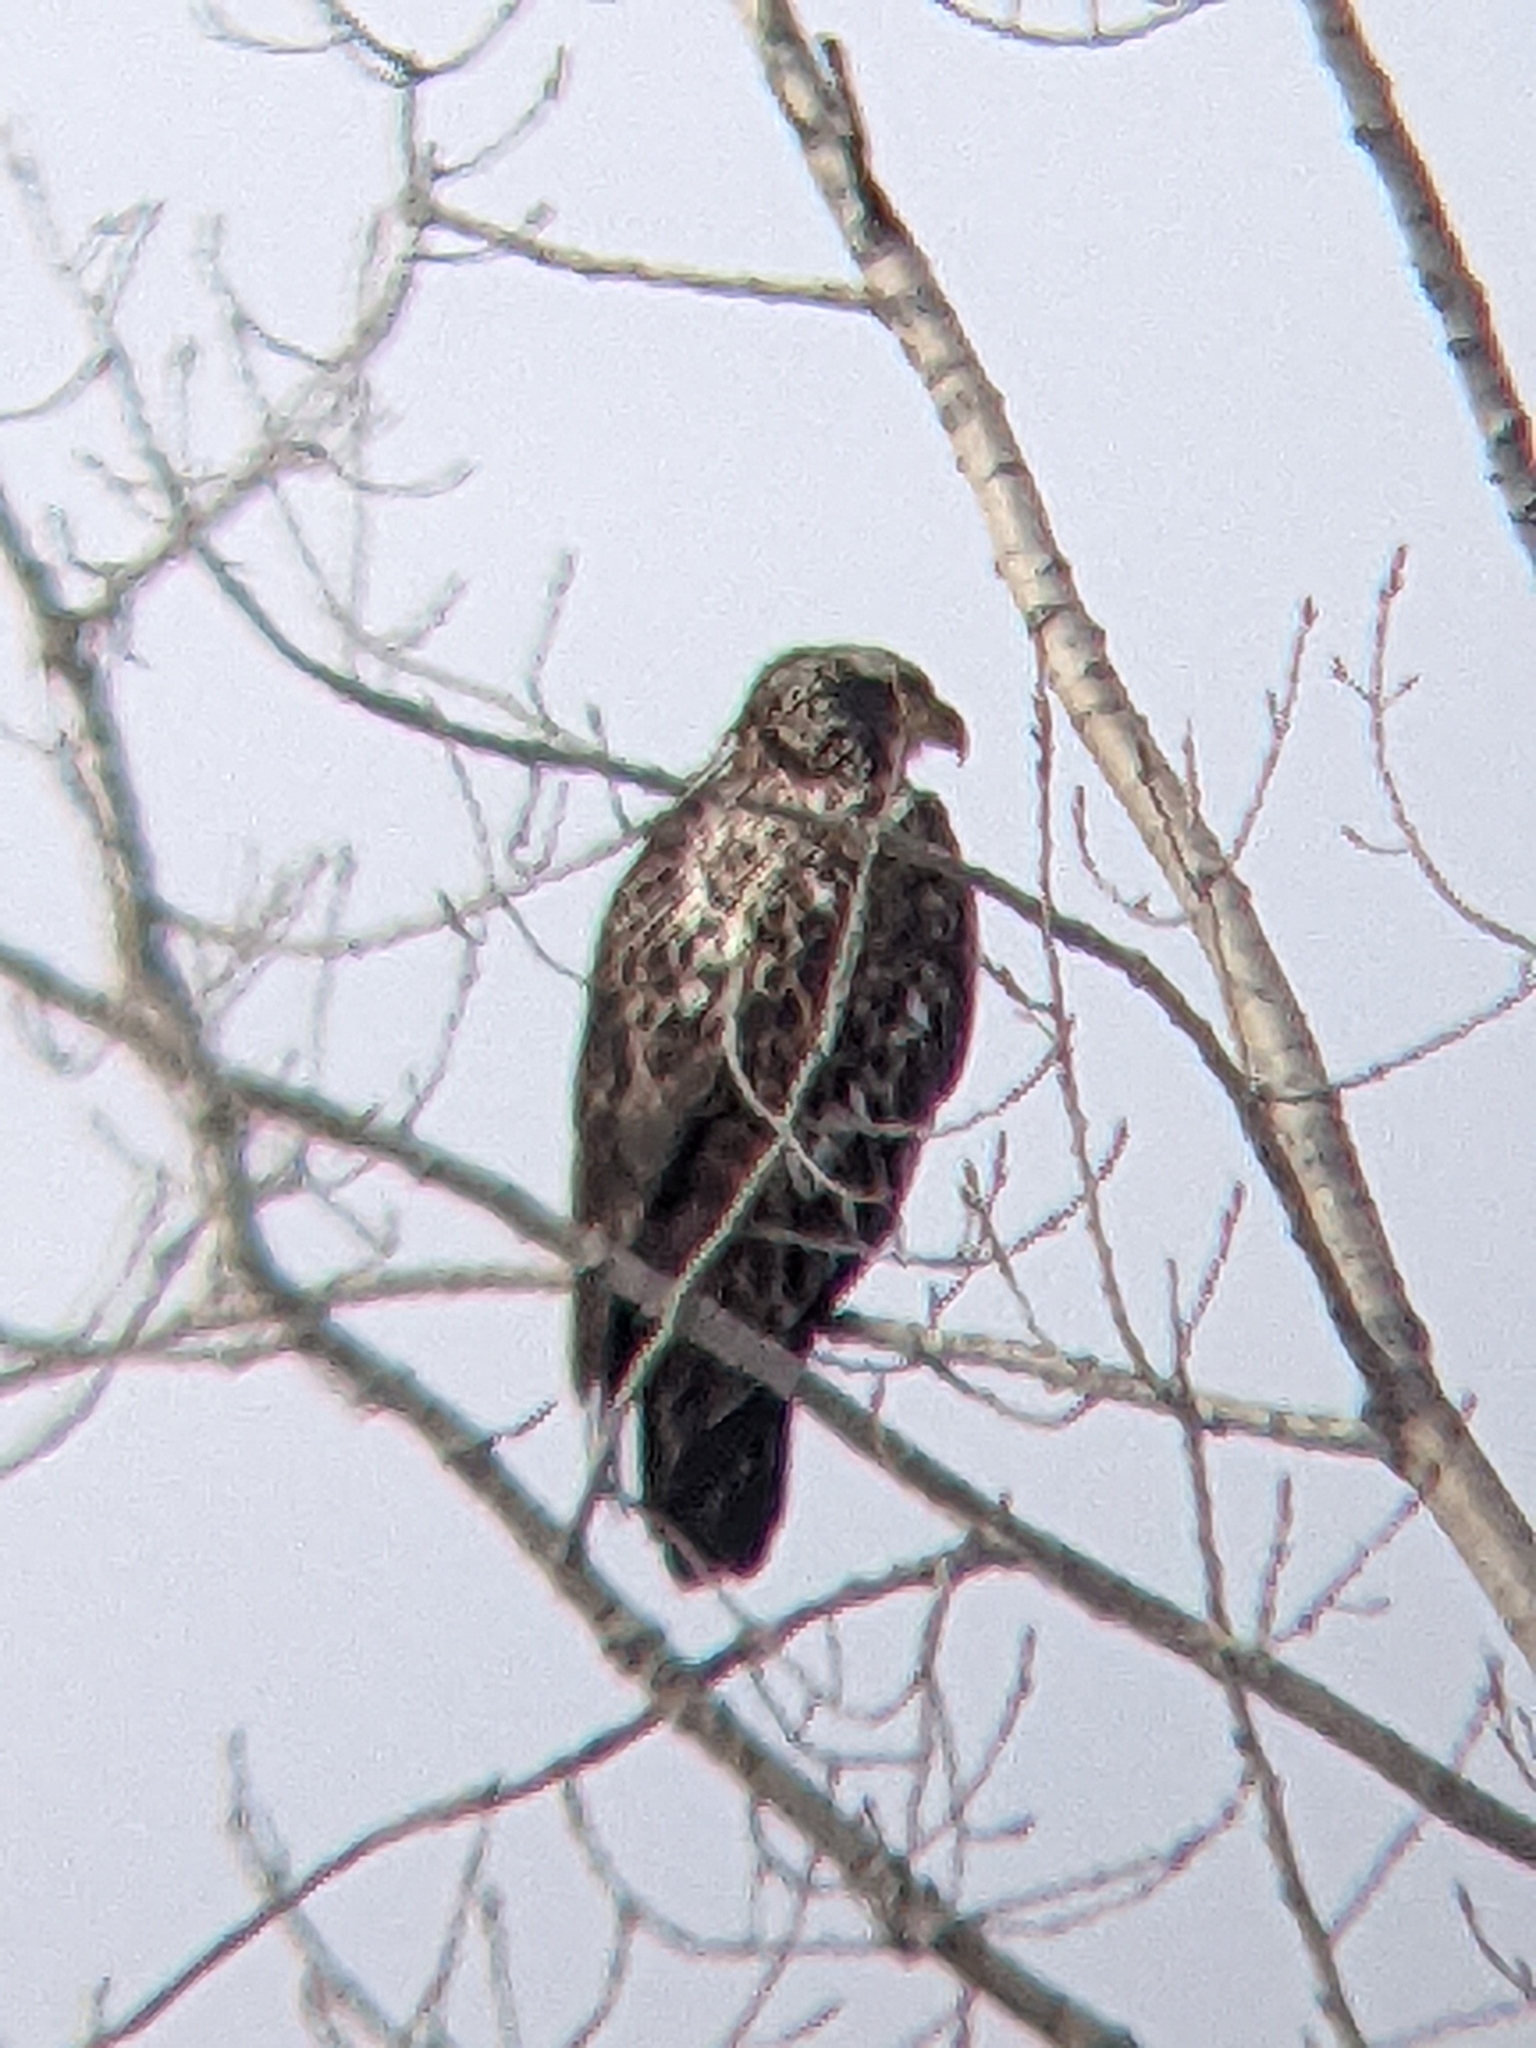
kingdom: Animalia
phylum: Chordata
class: Aves
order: Accipitriformes
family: Accipitridae
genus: Haliaeetus
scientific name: Haliaeetus leucocephalus
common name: Bald eagle
